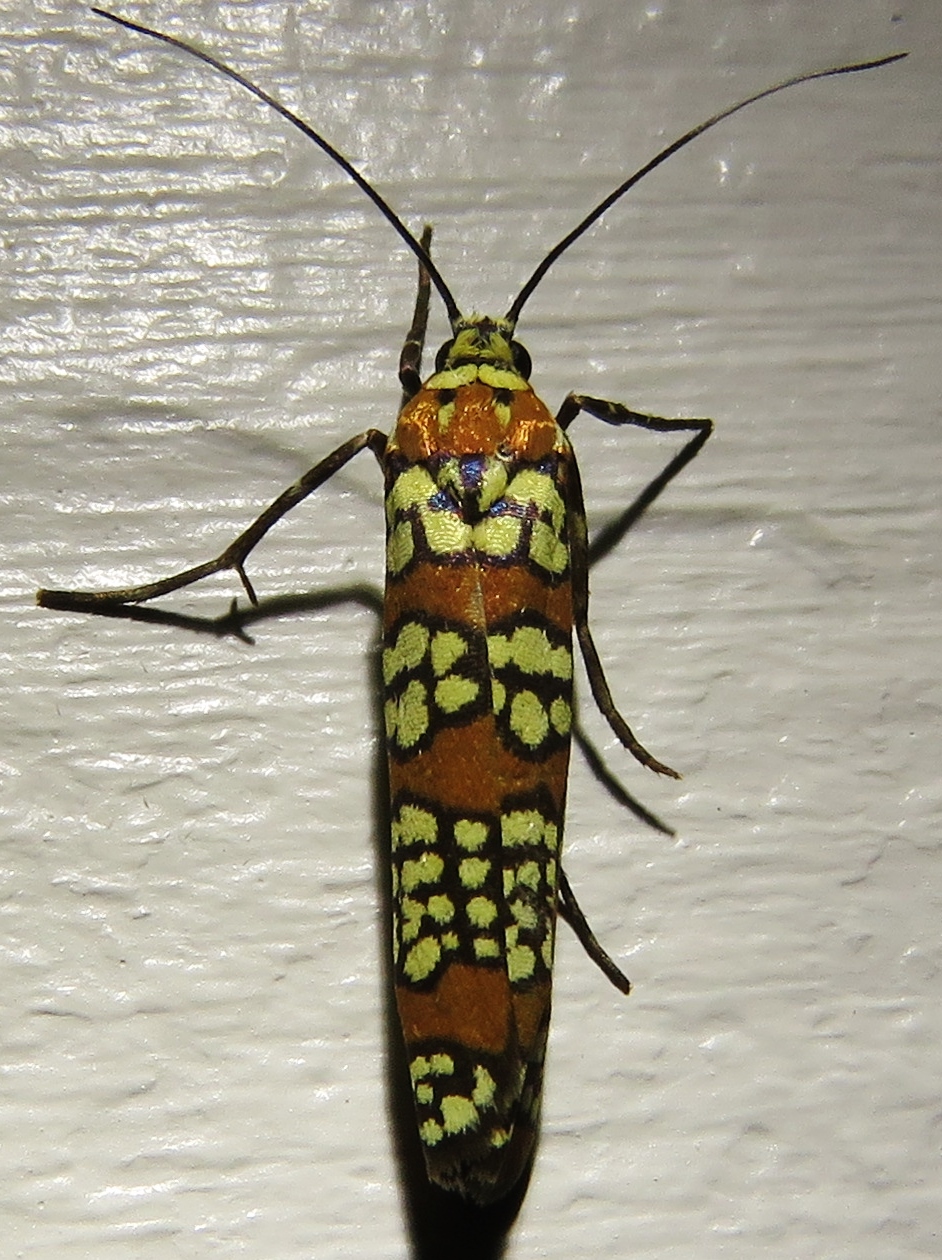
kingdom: Animalia
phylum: Arthropoda
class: Insecta
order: Lepidoptera
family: Attevidae
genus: Atteva
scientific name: Atteva punctella
